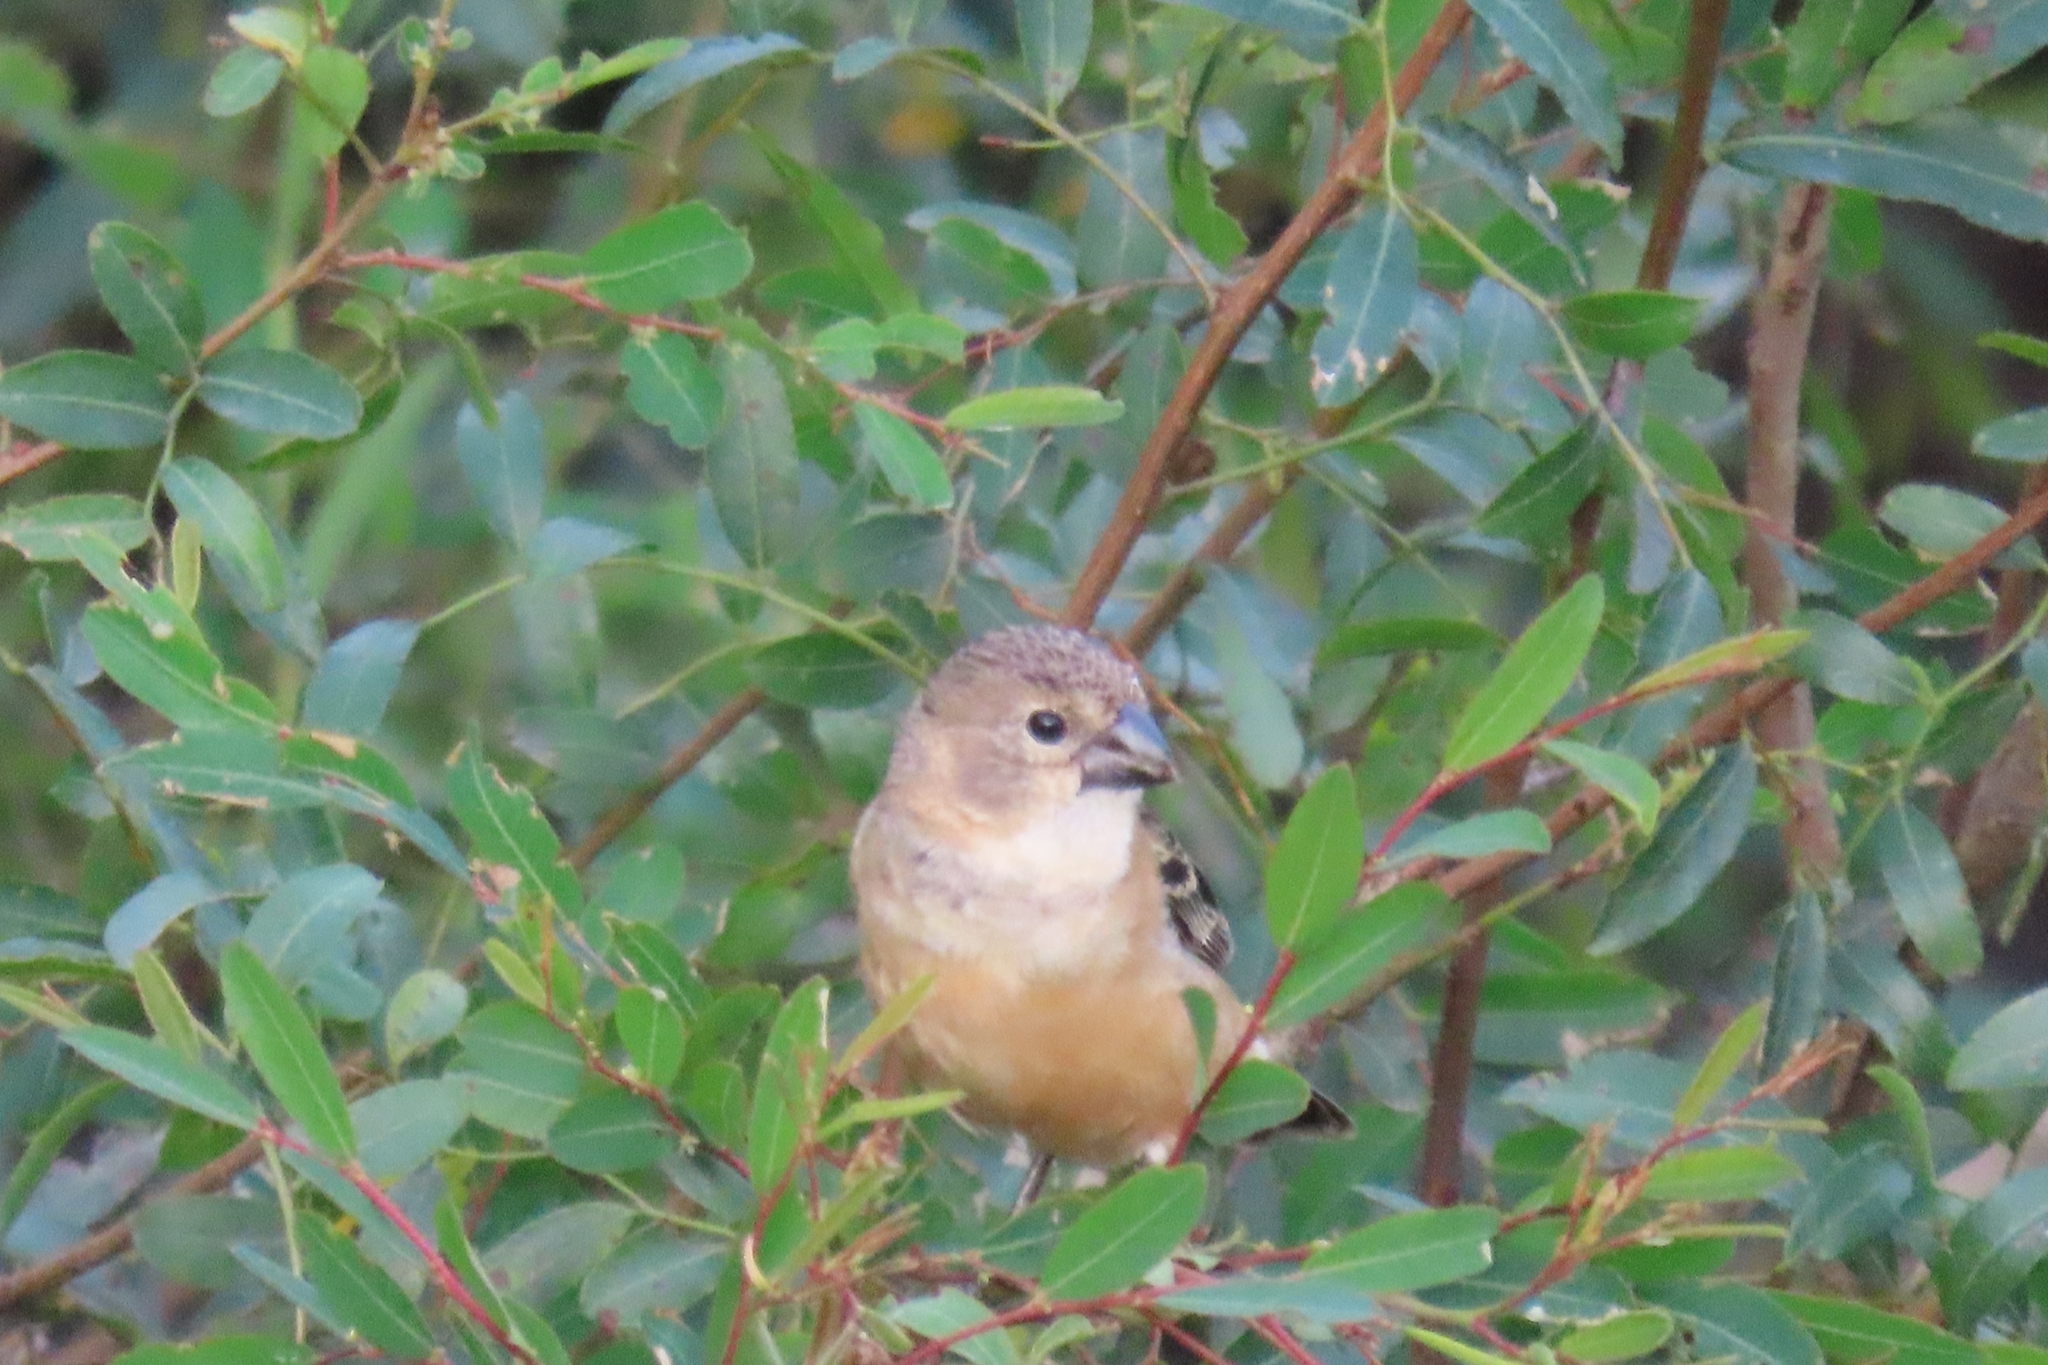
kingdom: Animalia
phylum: Chordata
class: Aves
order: Passeriformes
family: Thraupidae
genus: Sporophila
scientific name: Sporophila collaris
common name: Rusty-collared seedeater
